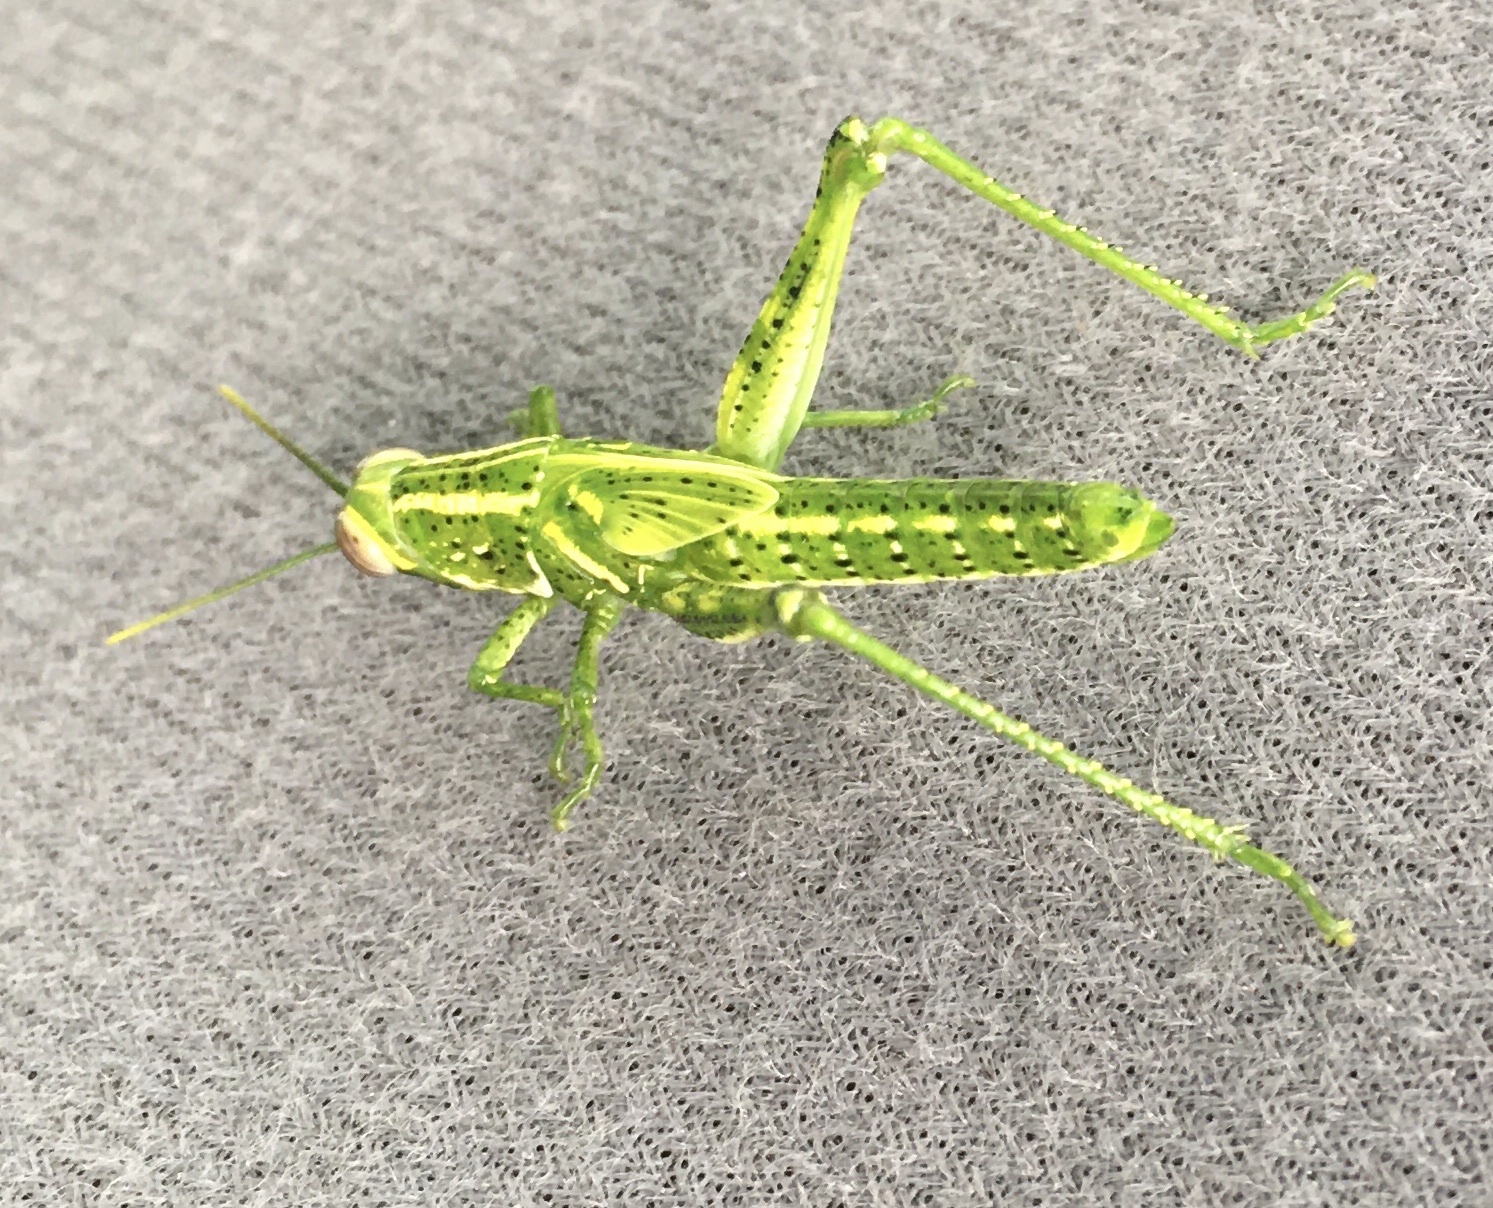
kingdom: Animalia
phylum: Arthropoda
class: Insecta
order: Orthoptera
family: Acrididae
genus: Schistocerca
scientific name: Schistocerca ceratiola
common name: Rosemary grasshopper
